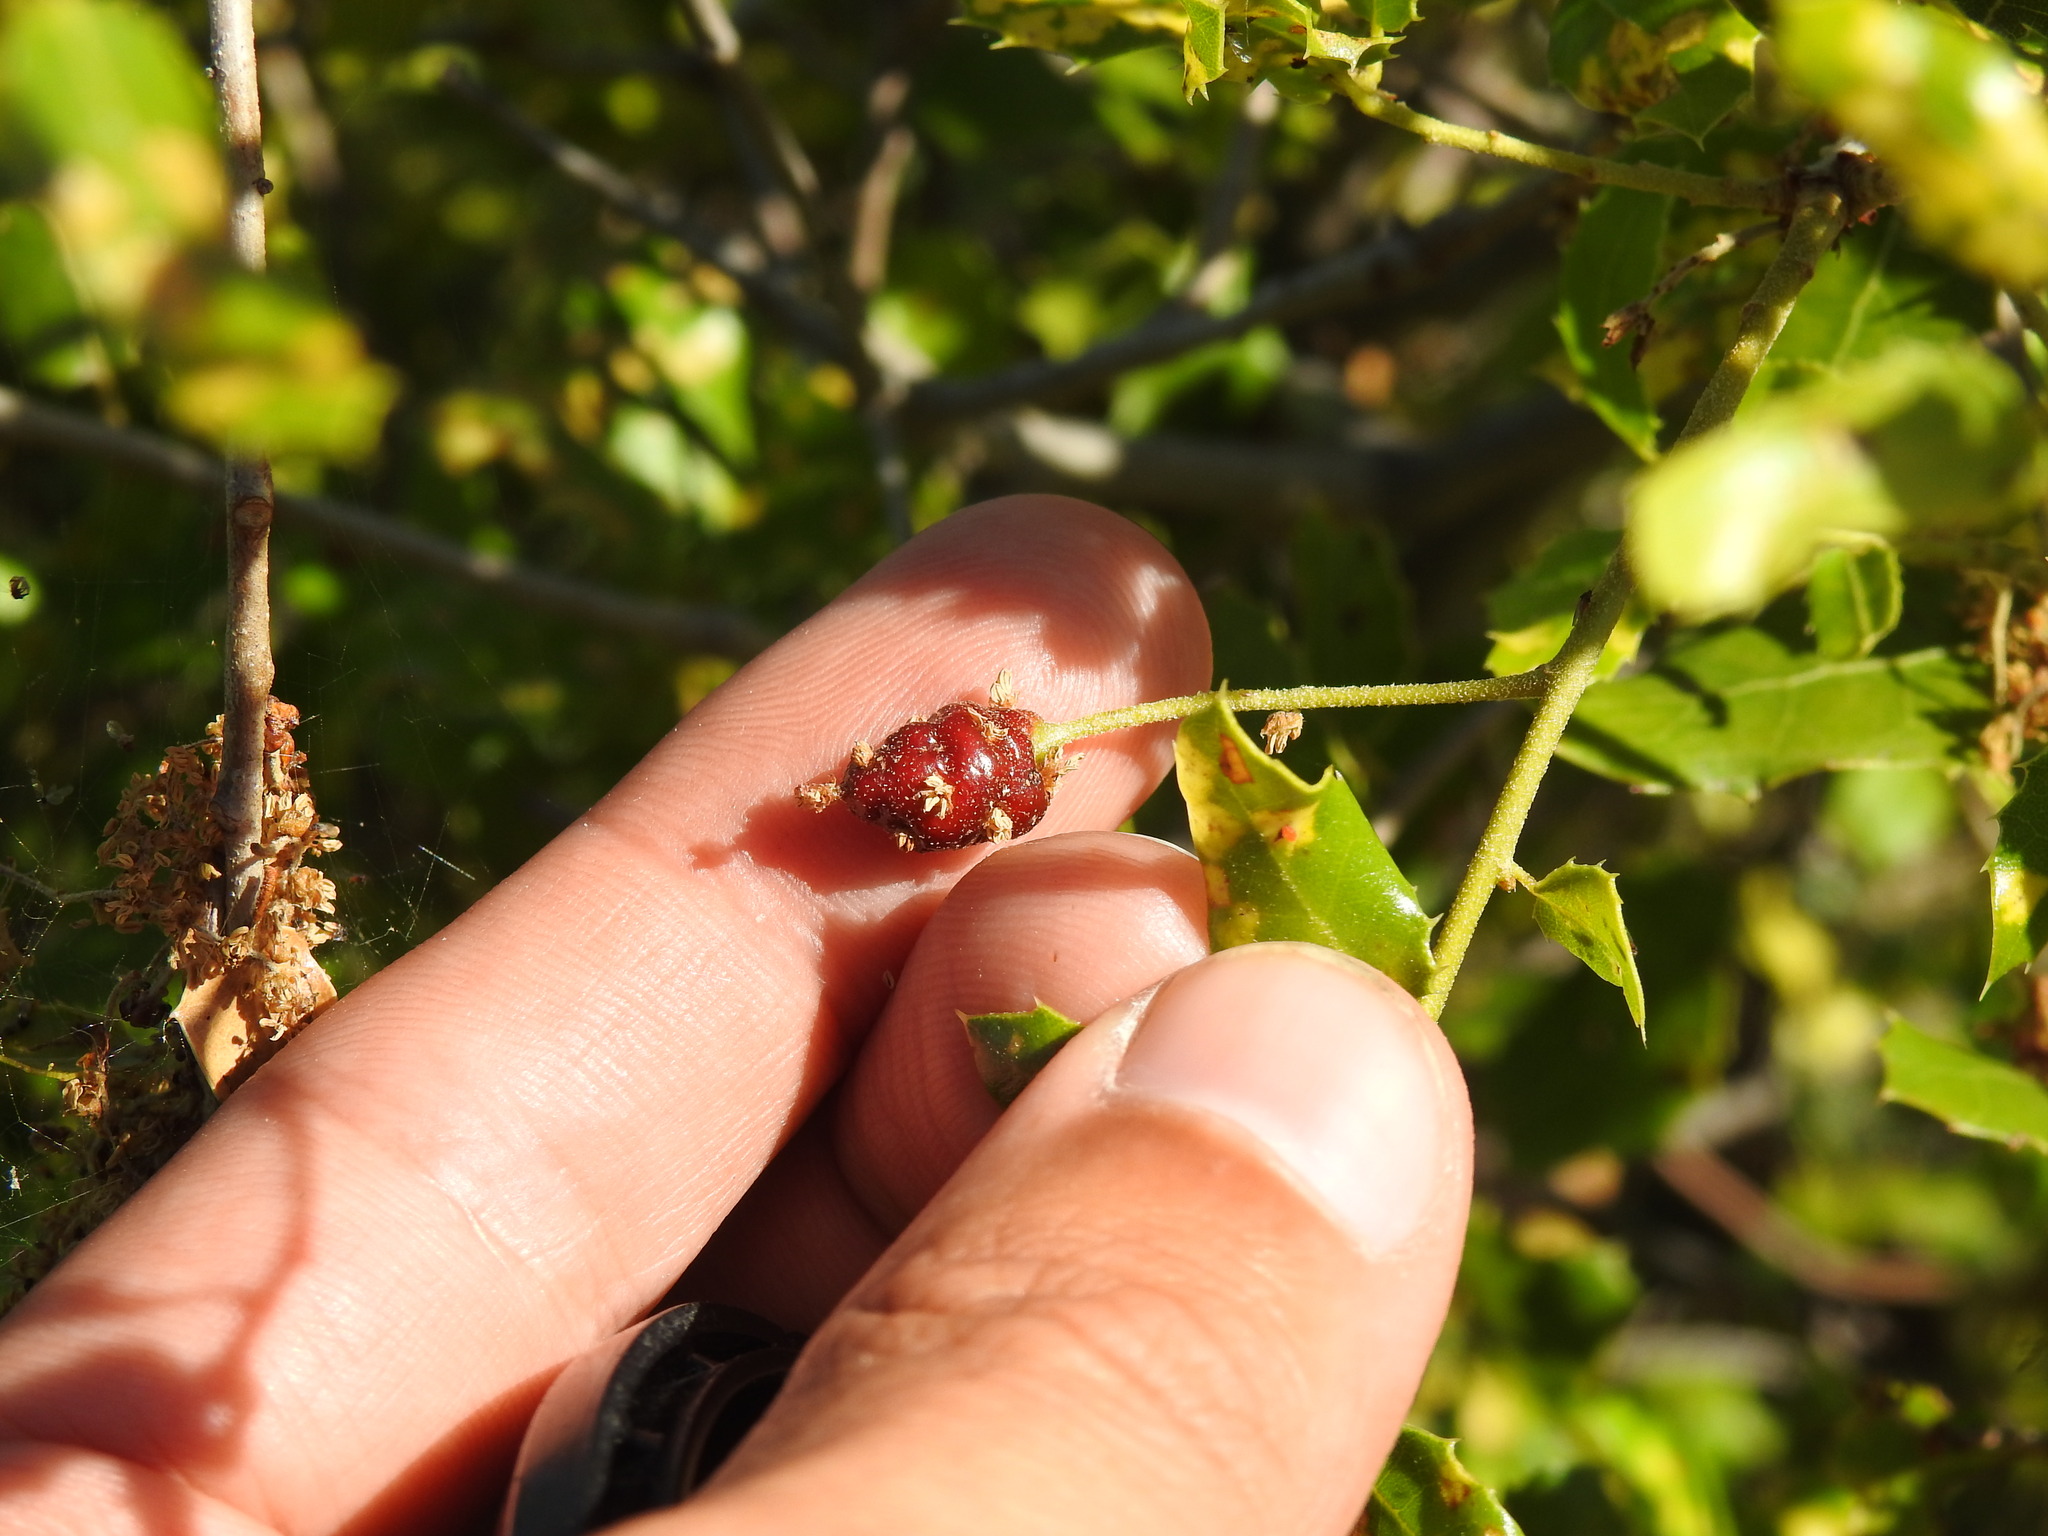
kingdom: Animalia
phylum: Arthropoda
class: Insecta
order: Hymenoptera
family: Cynipidae
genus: Plagiotrochus
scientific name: Plagiotrochus quercusilicis
